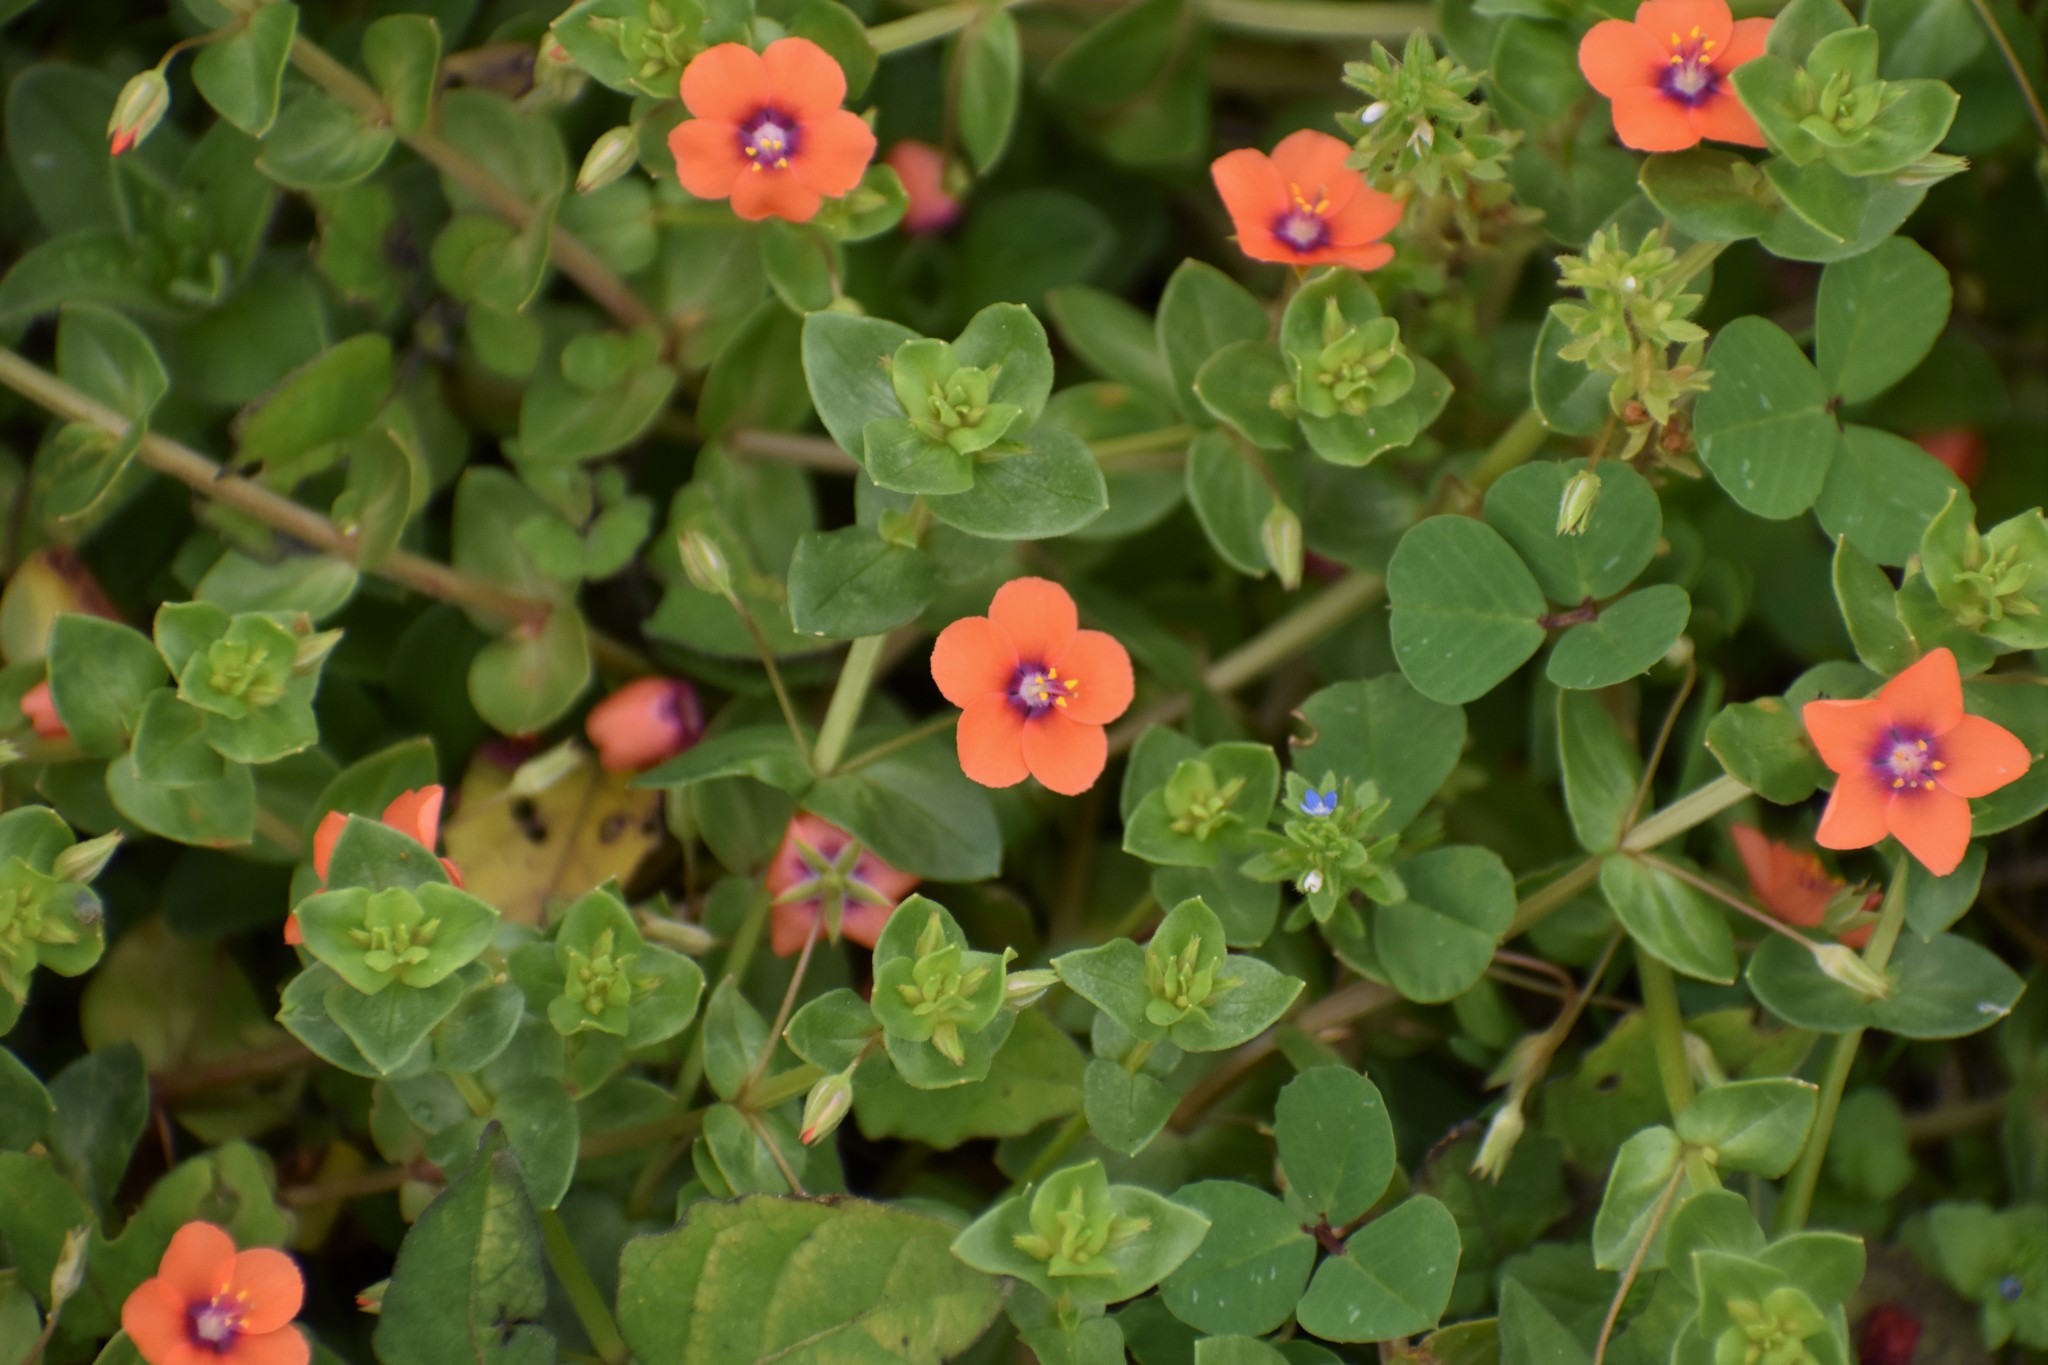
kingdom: Plantae
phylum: Tracheophyta
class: Magnoliopsida
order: Ericales
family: Primulaceae
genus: Lysimachia
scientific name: Lysimachia arvensis
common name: Scarlet pimpernel
